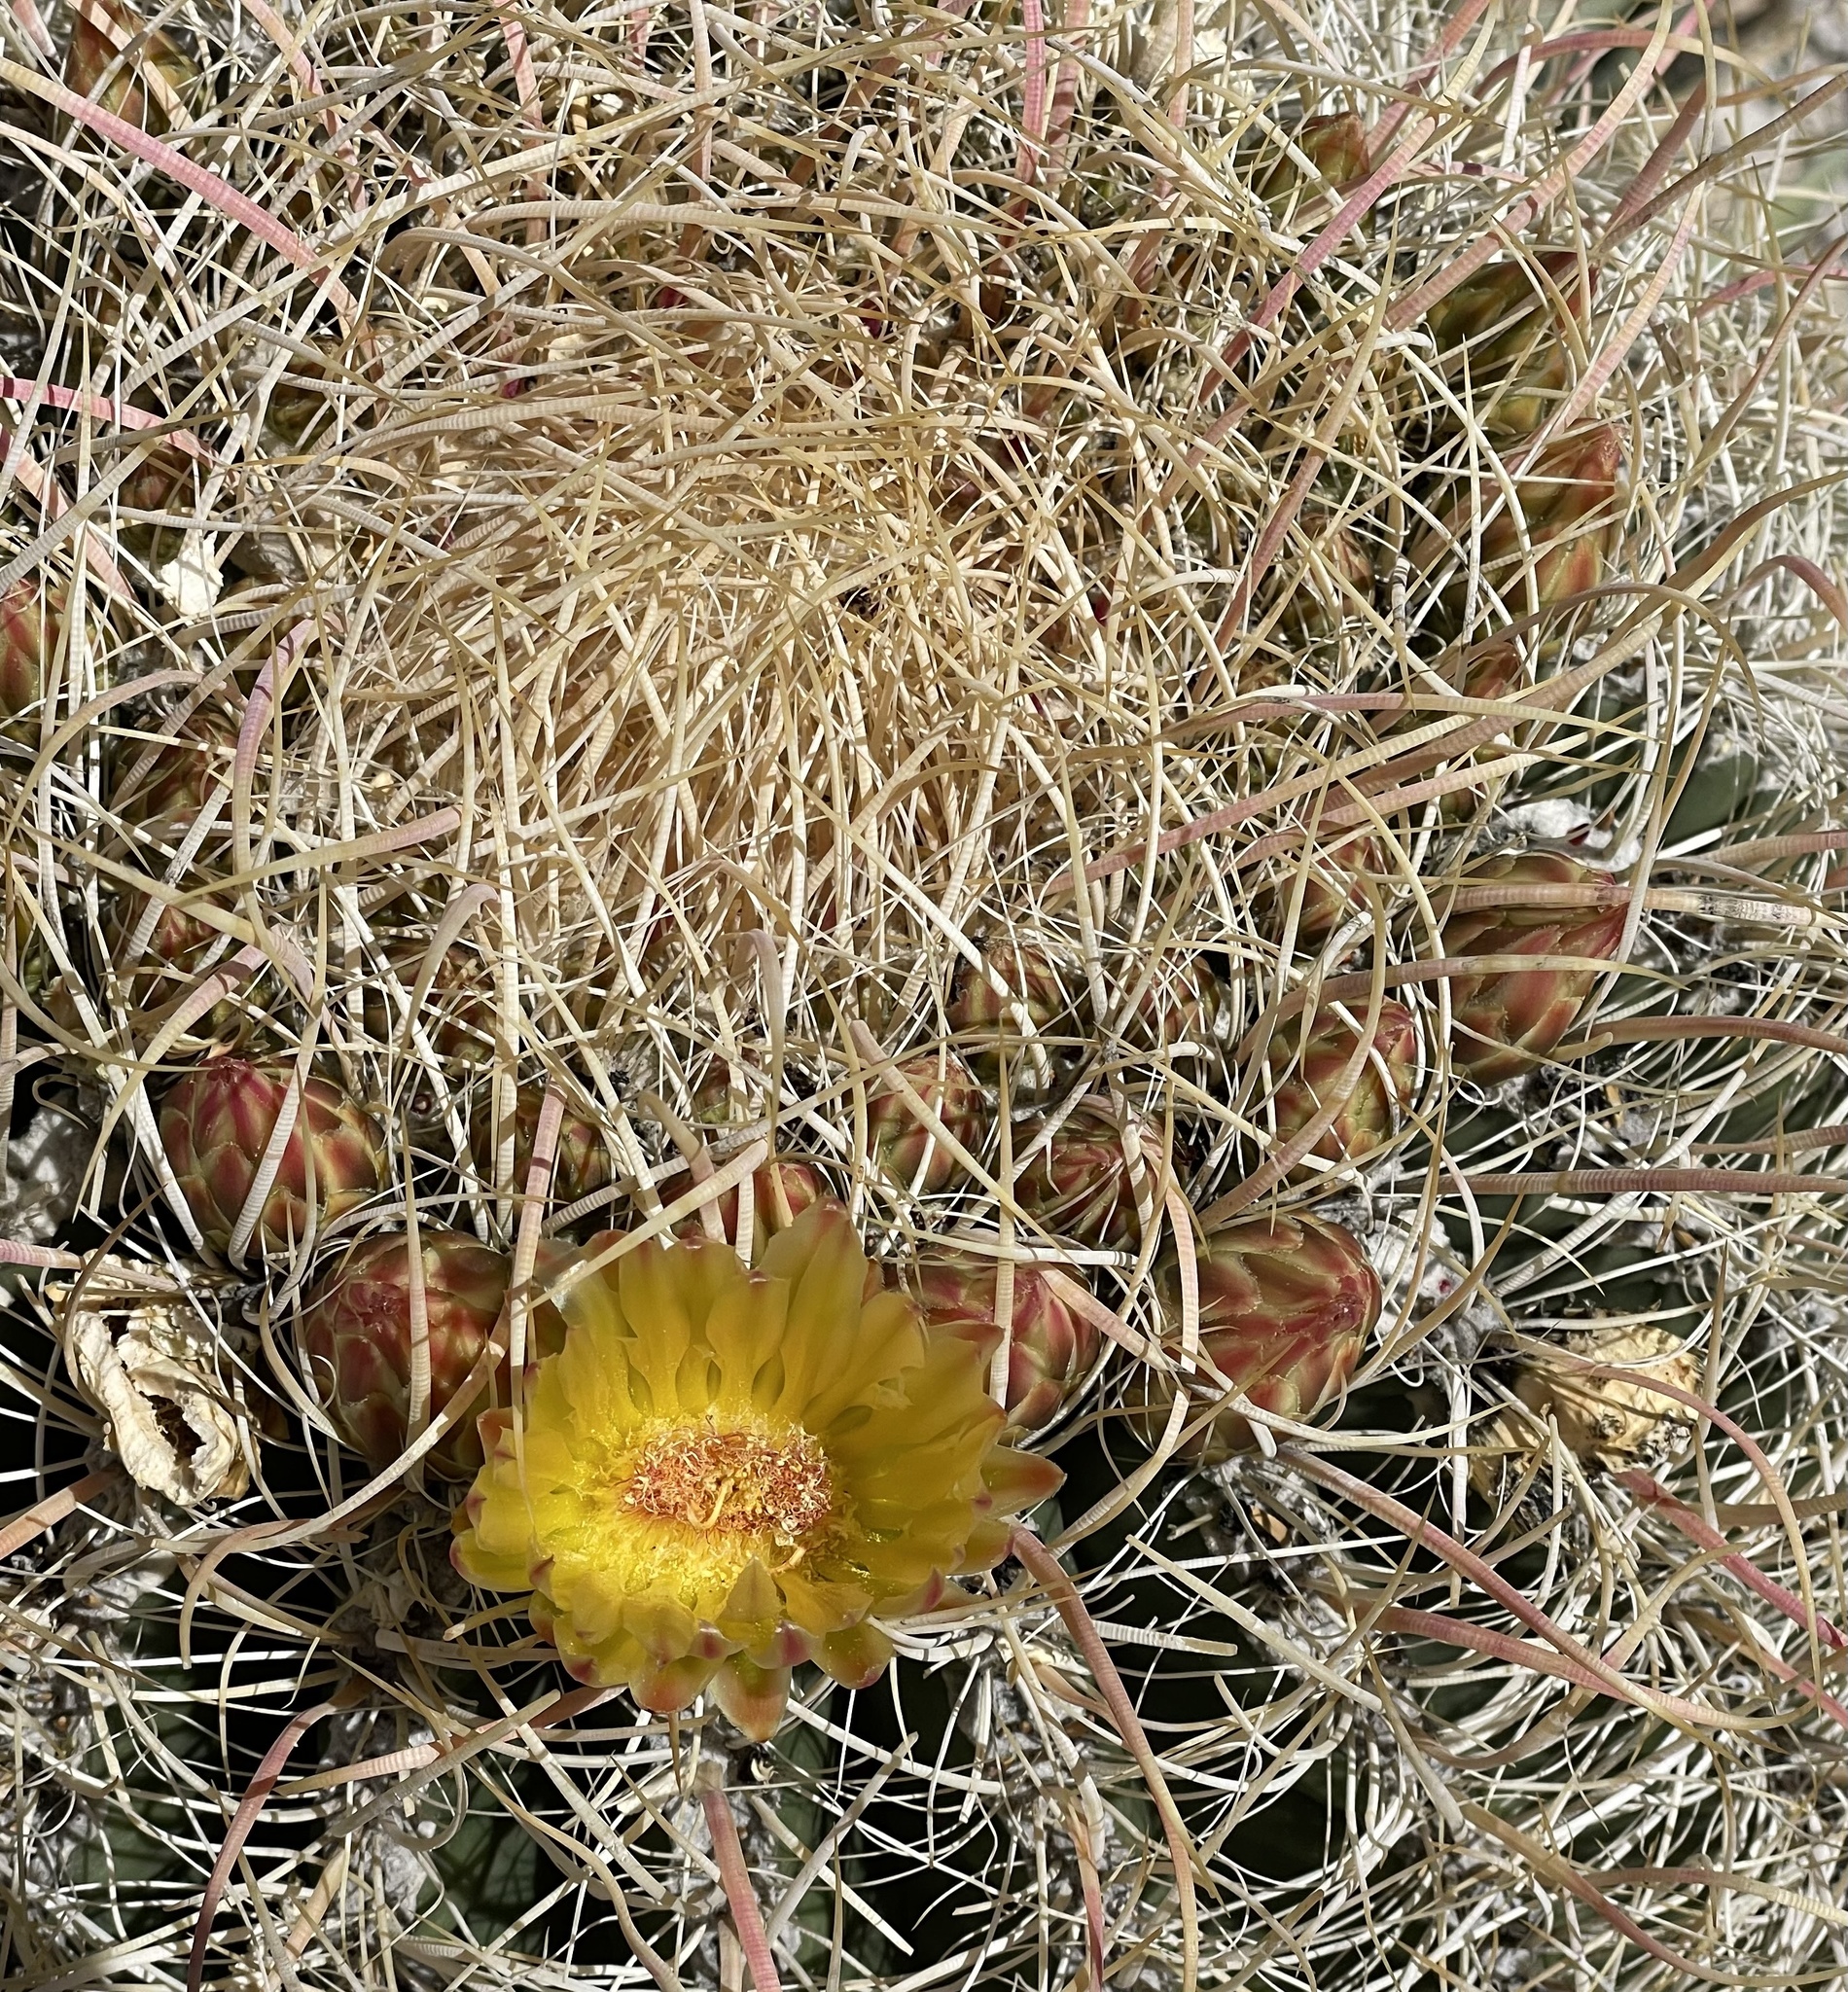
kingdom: Plantae
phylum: Tracheophyta
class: Magnoliopsida
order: Caryophyllales
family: Cactaceae
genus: Ferocactus
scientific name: Ferocactus cylindraceus
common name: California barrel cactus
